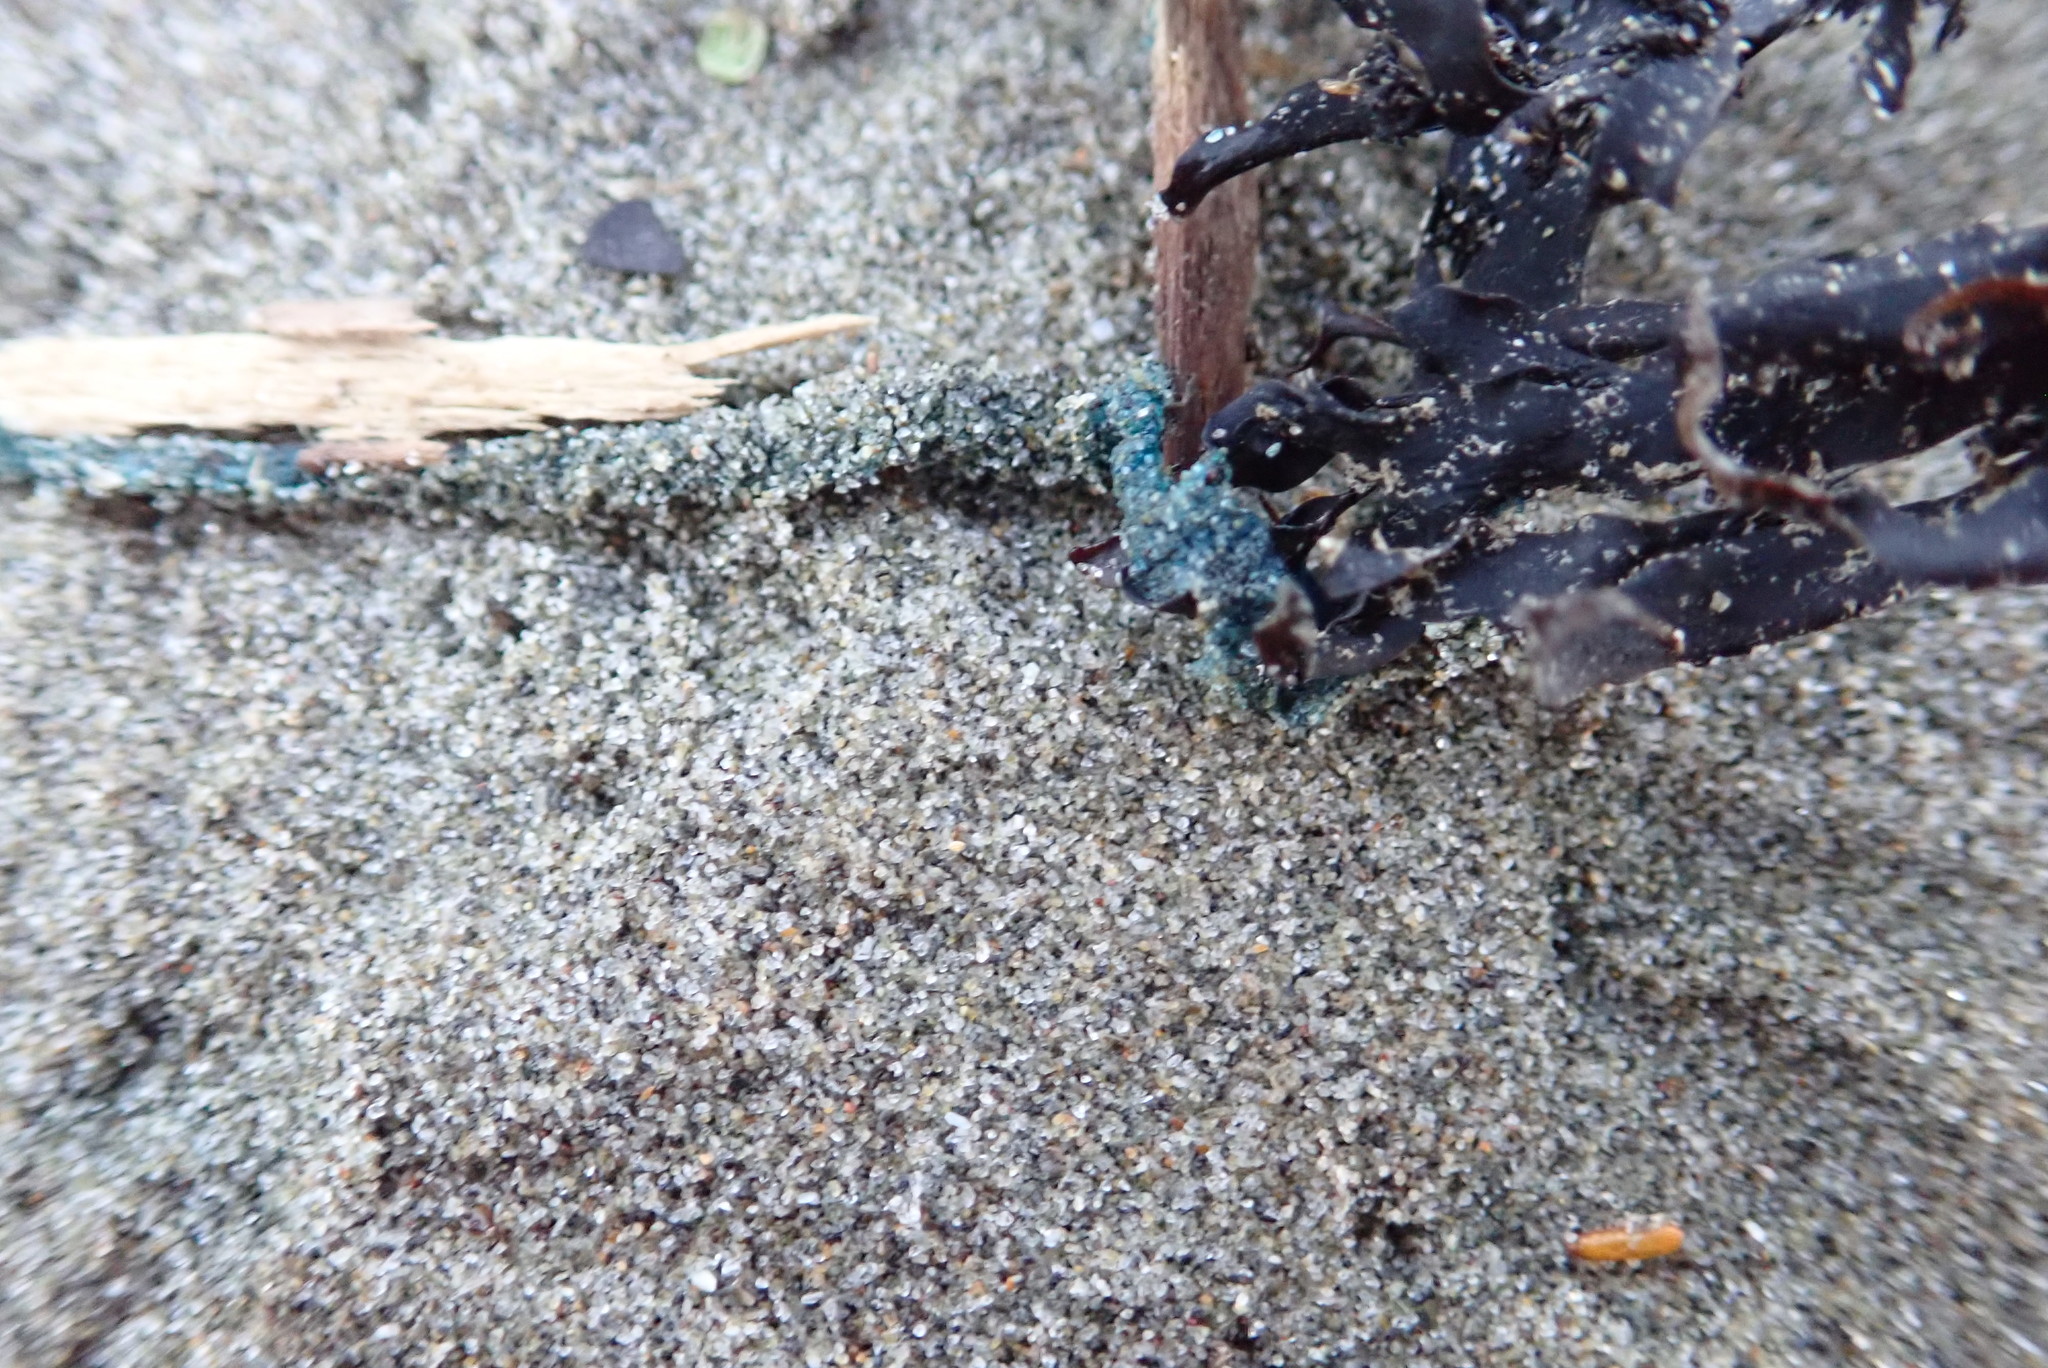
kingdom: Animalia
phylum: Cnidaria
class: Hydrozoa
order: Siphonophorae
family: Physaliidae
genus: Physalia
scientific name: Physalia physalis
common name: Portuguese man-of-war
